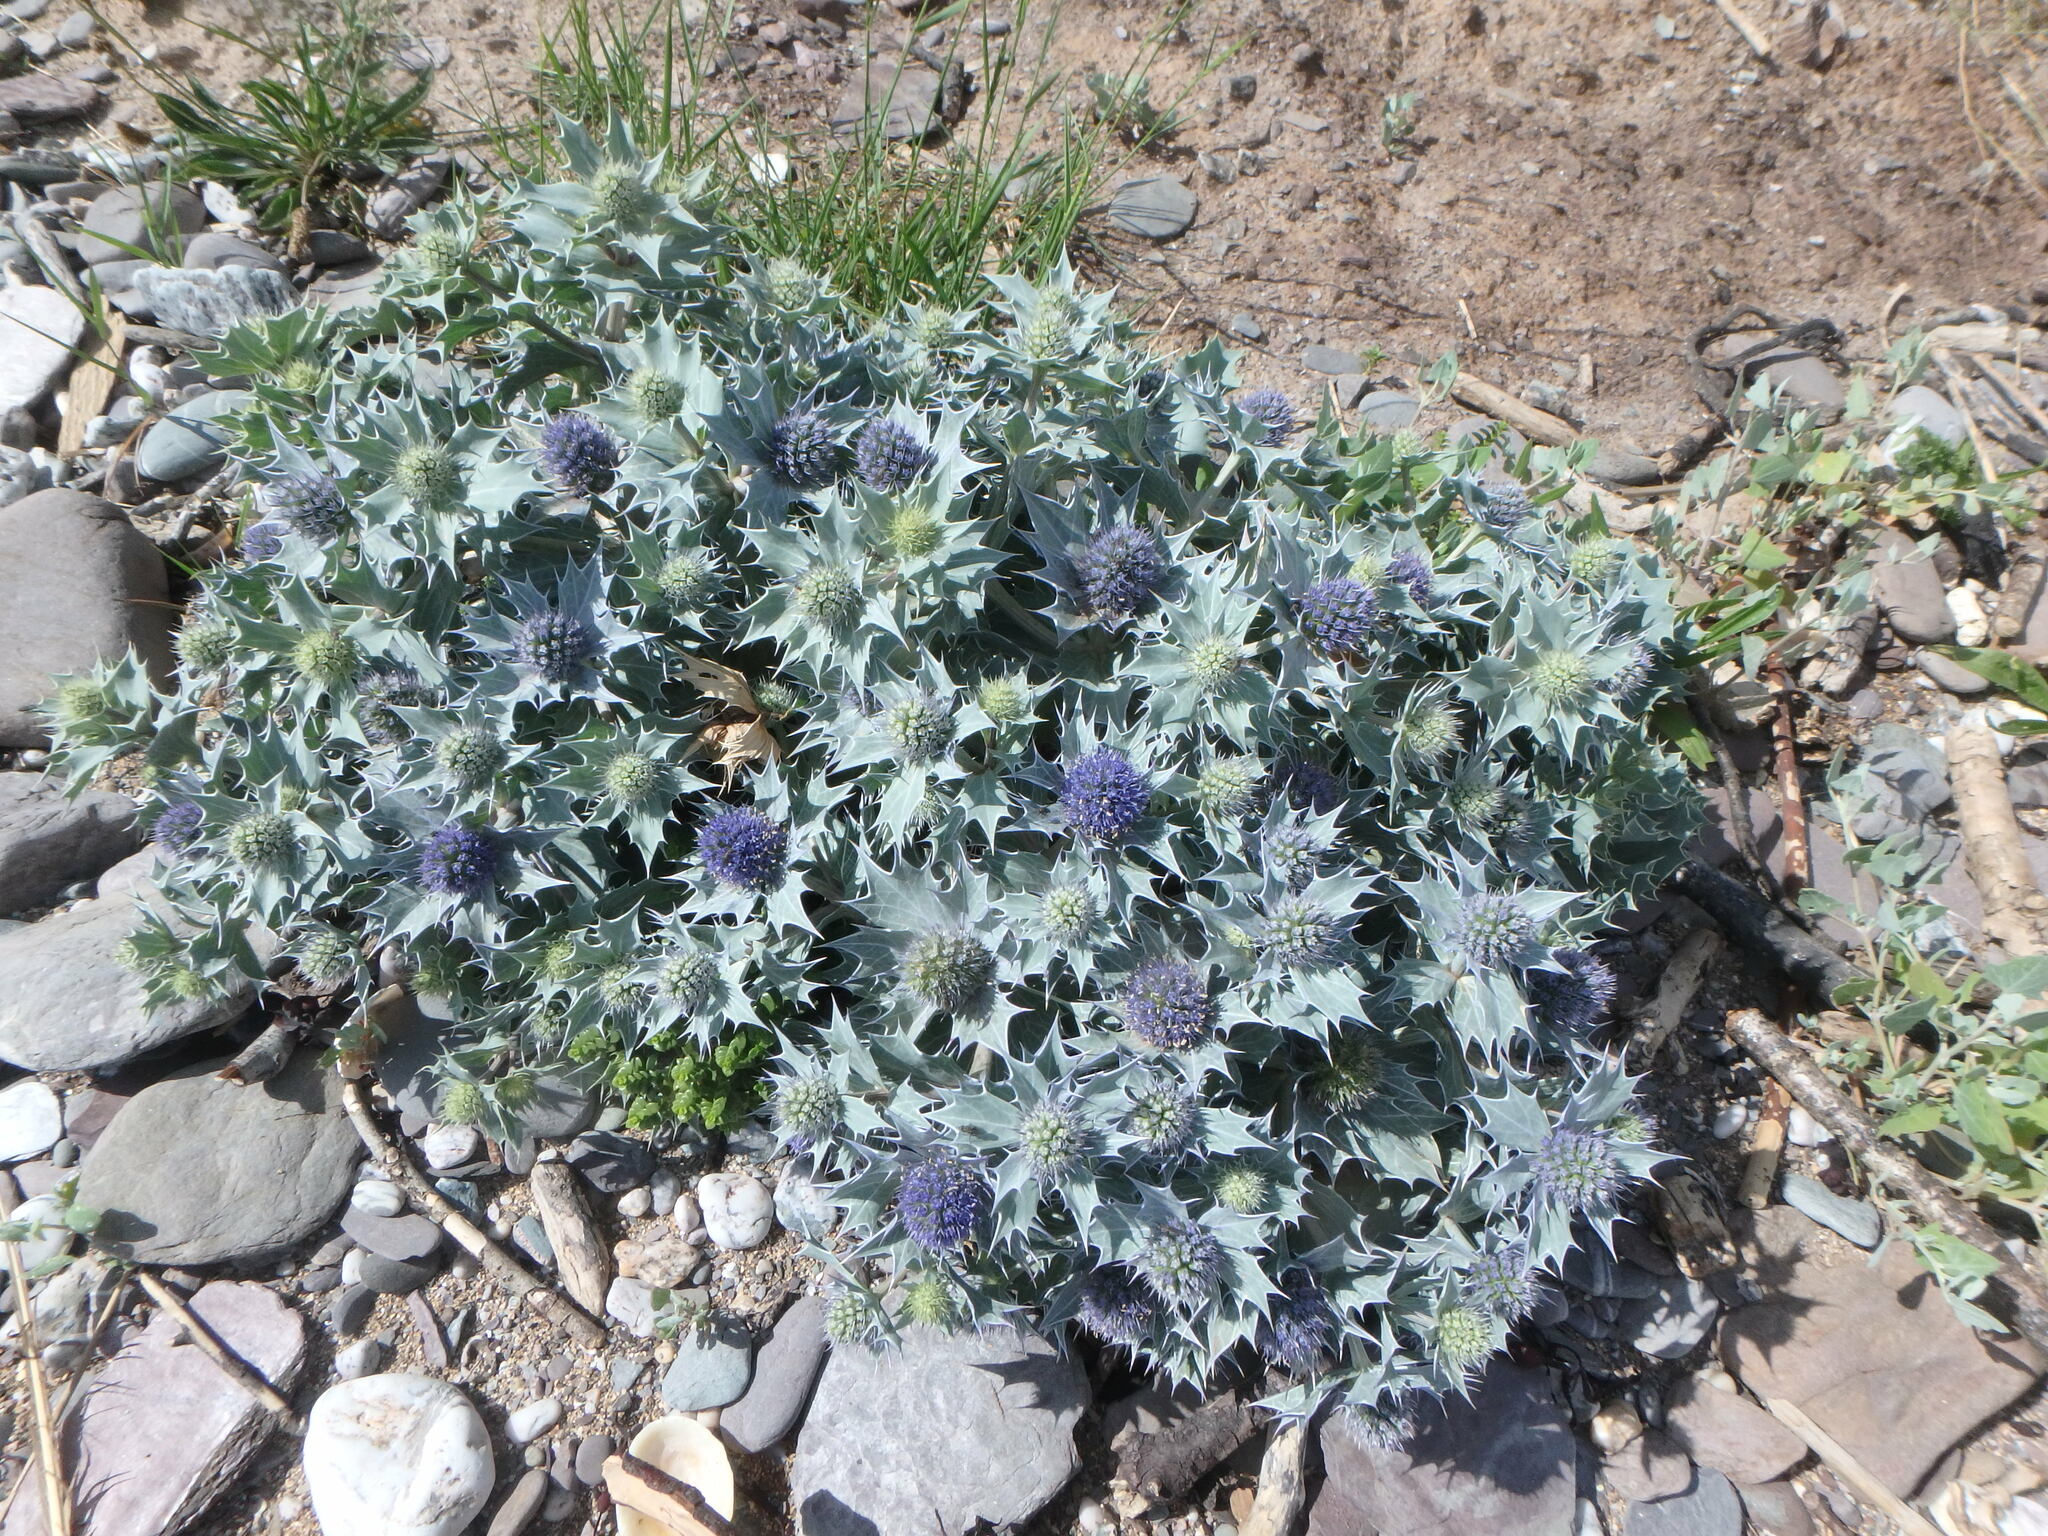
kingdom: Plantae
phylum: Tracheophyta
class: Magnoliopsida
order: Apiales
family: Apiaceae
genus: Eryngium
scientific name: Eryngium maritimum
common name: Sea-holly
